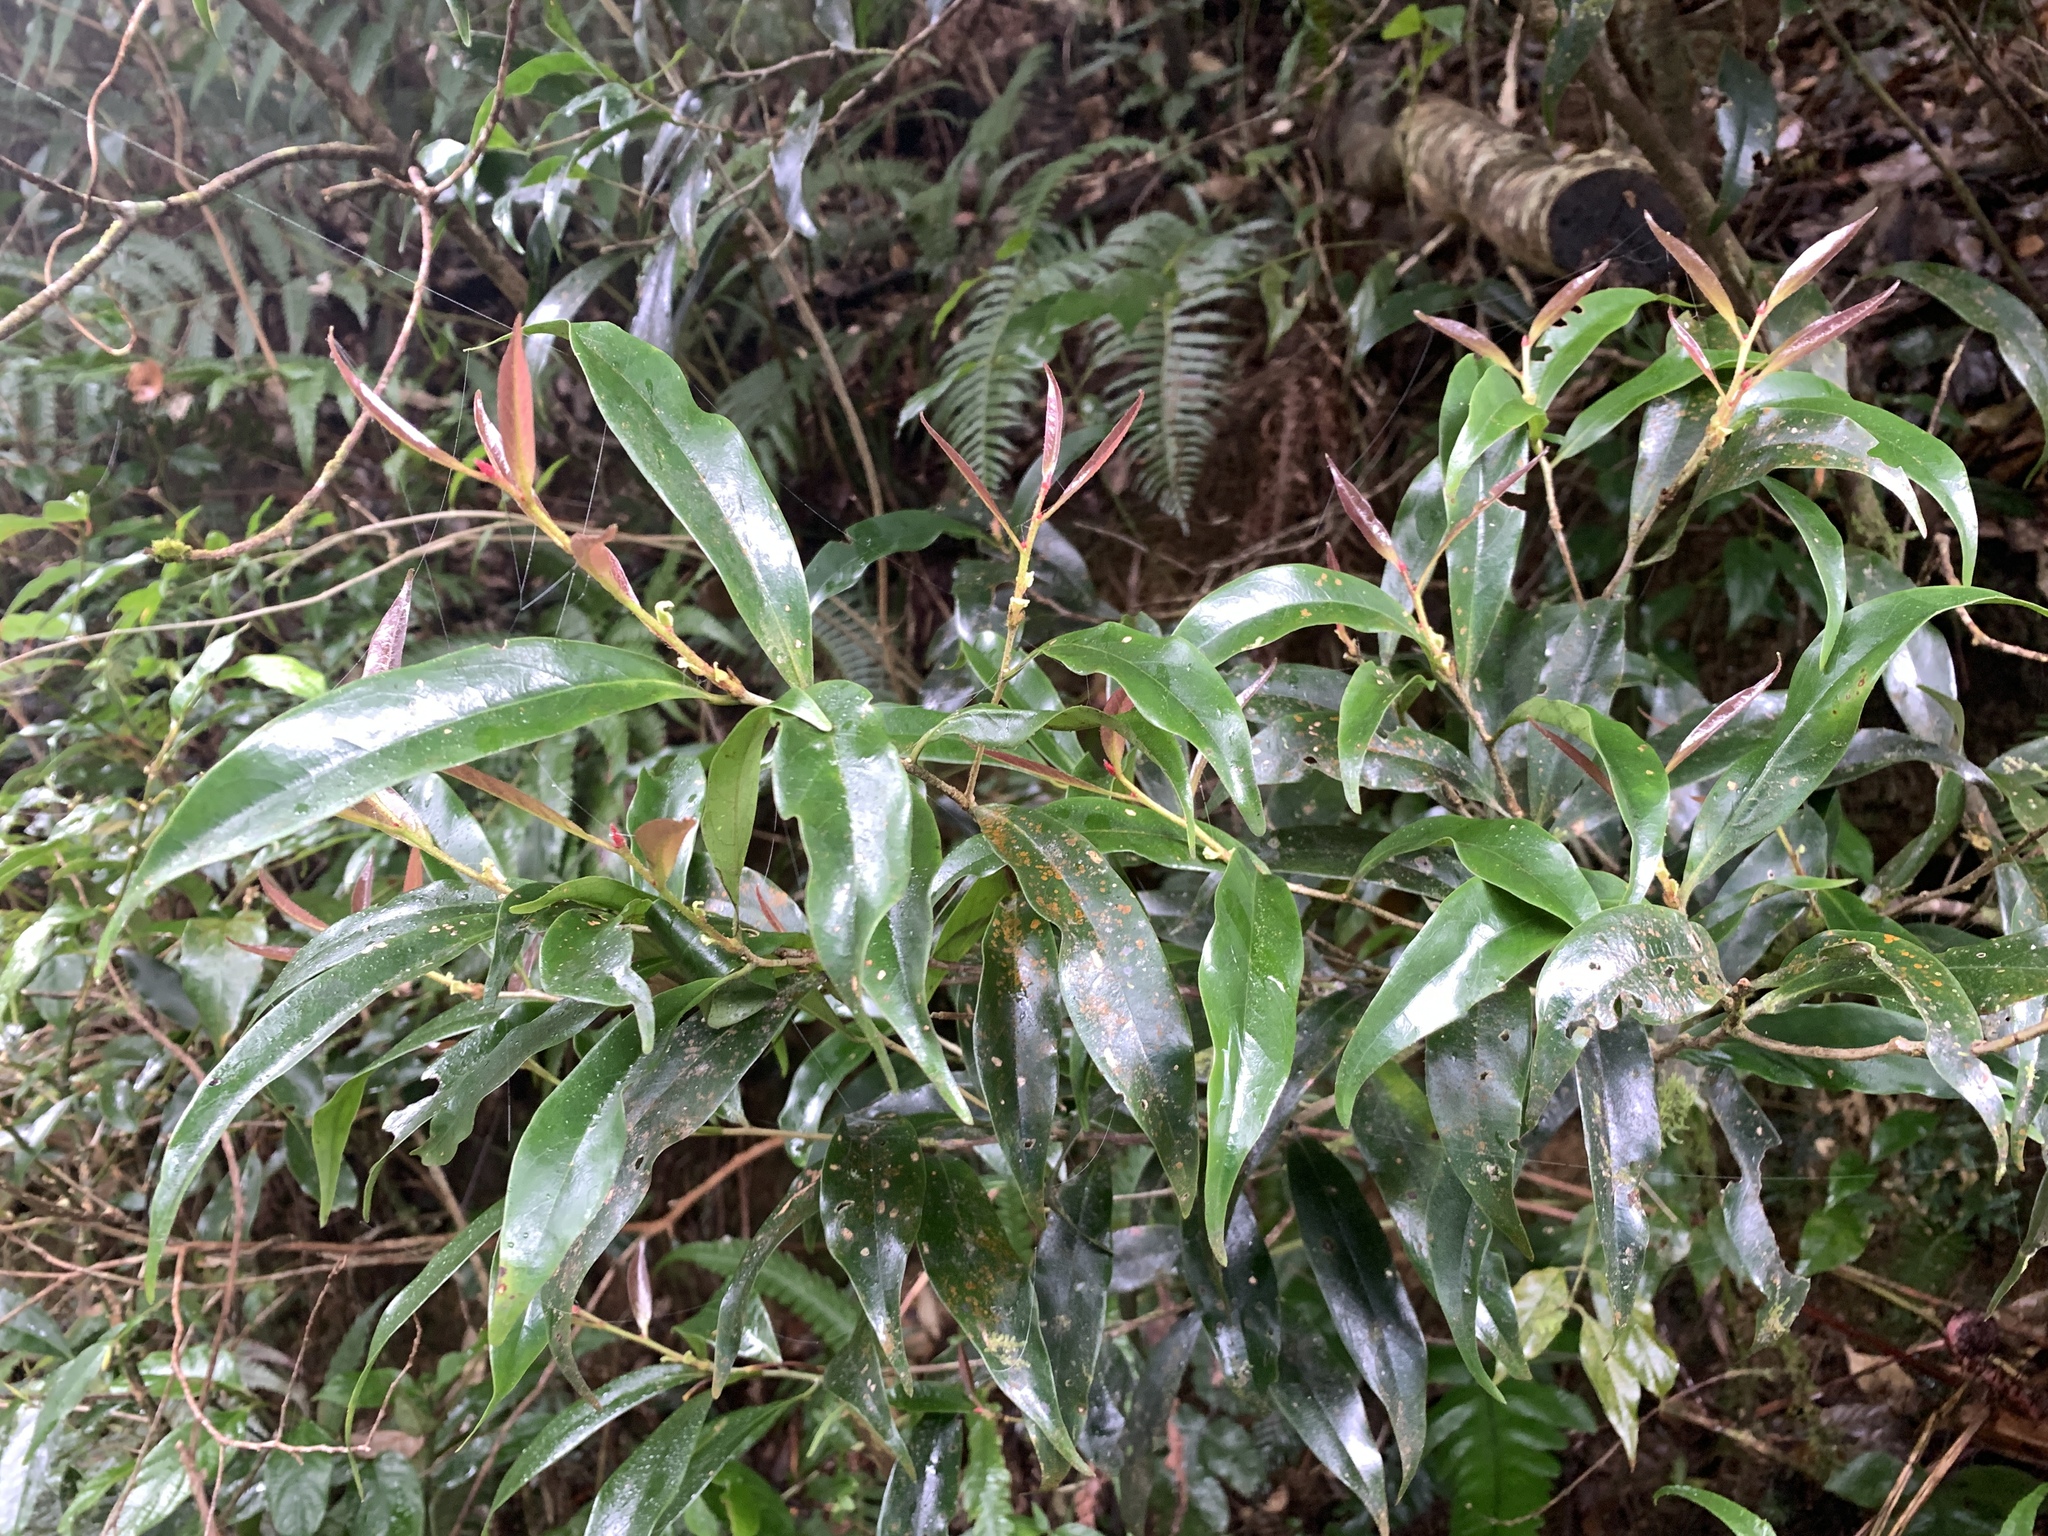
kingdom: Plantae
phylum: Tracheophyta
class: Magnoliopsida
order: Ericales
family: Symplocaceae
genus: Symplocos
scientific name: Symplocos congesta
